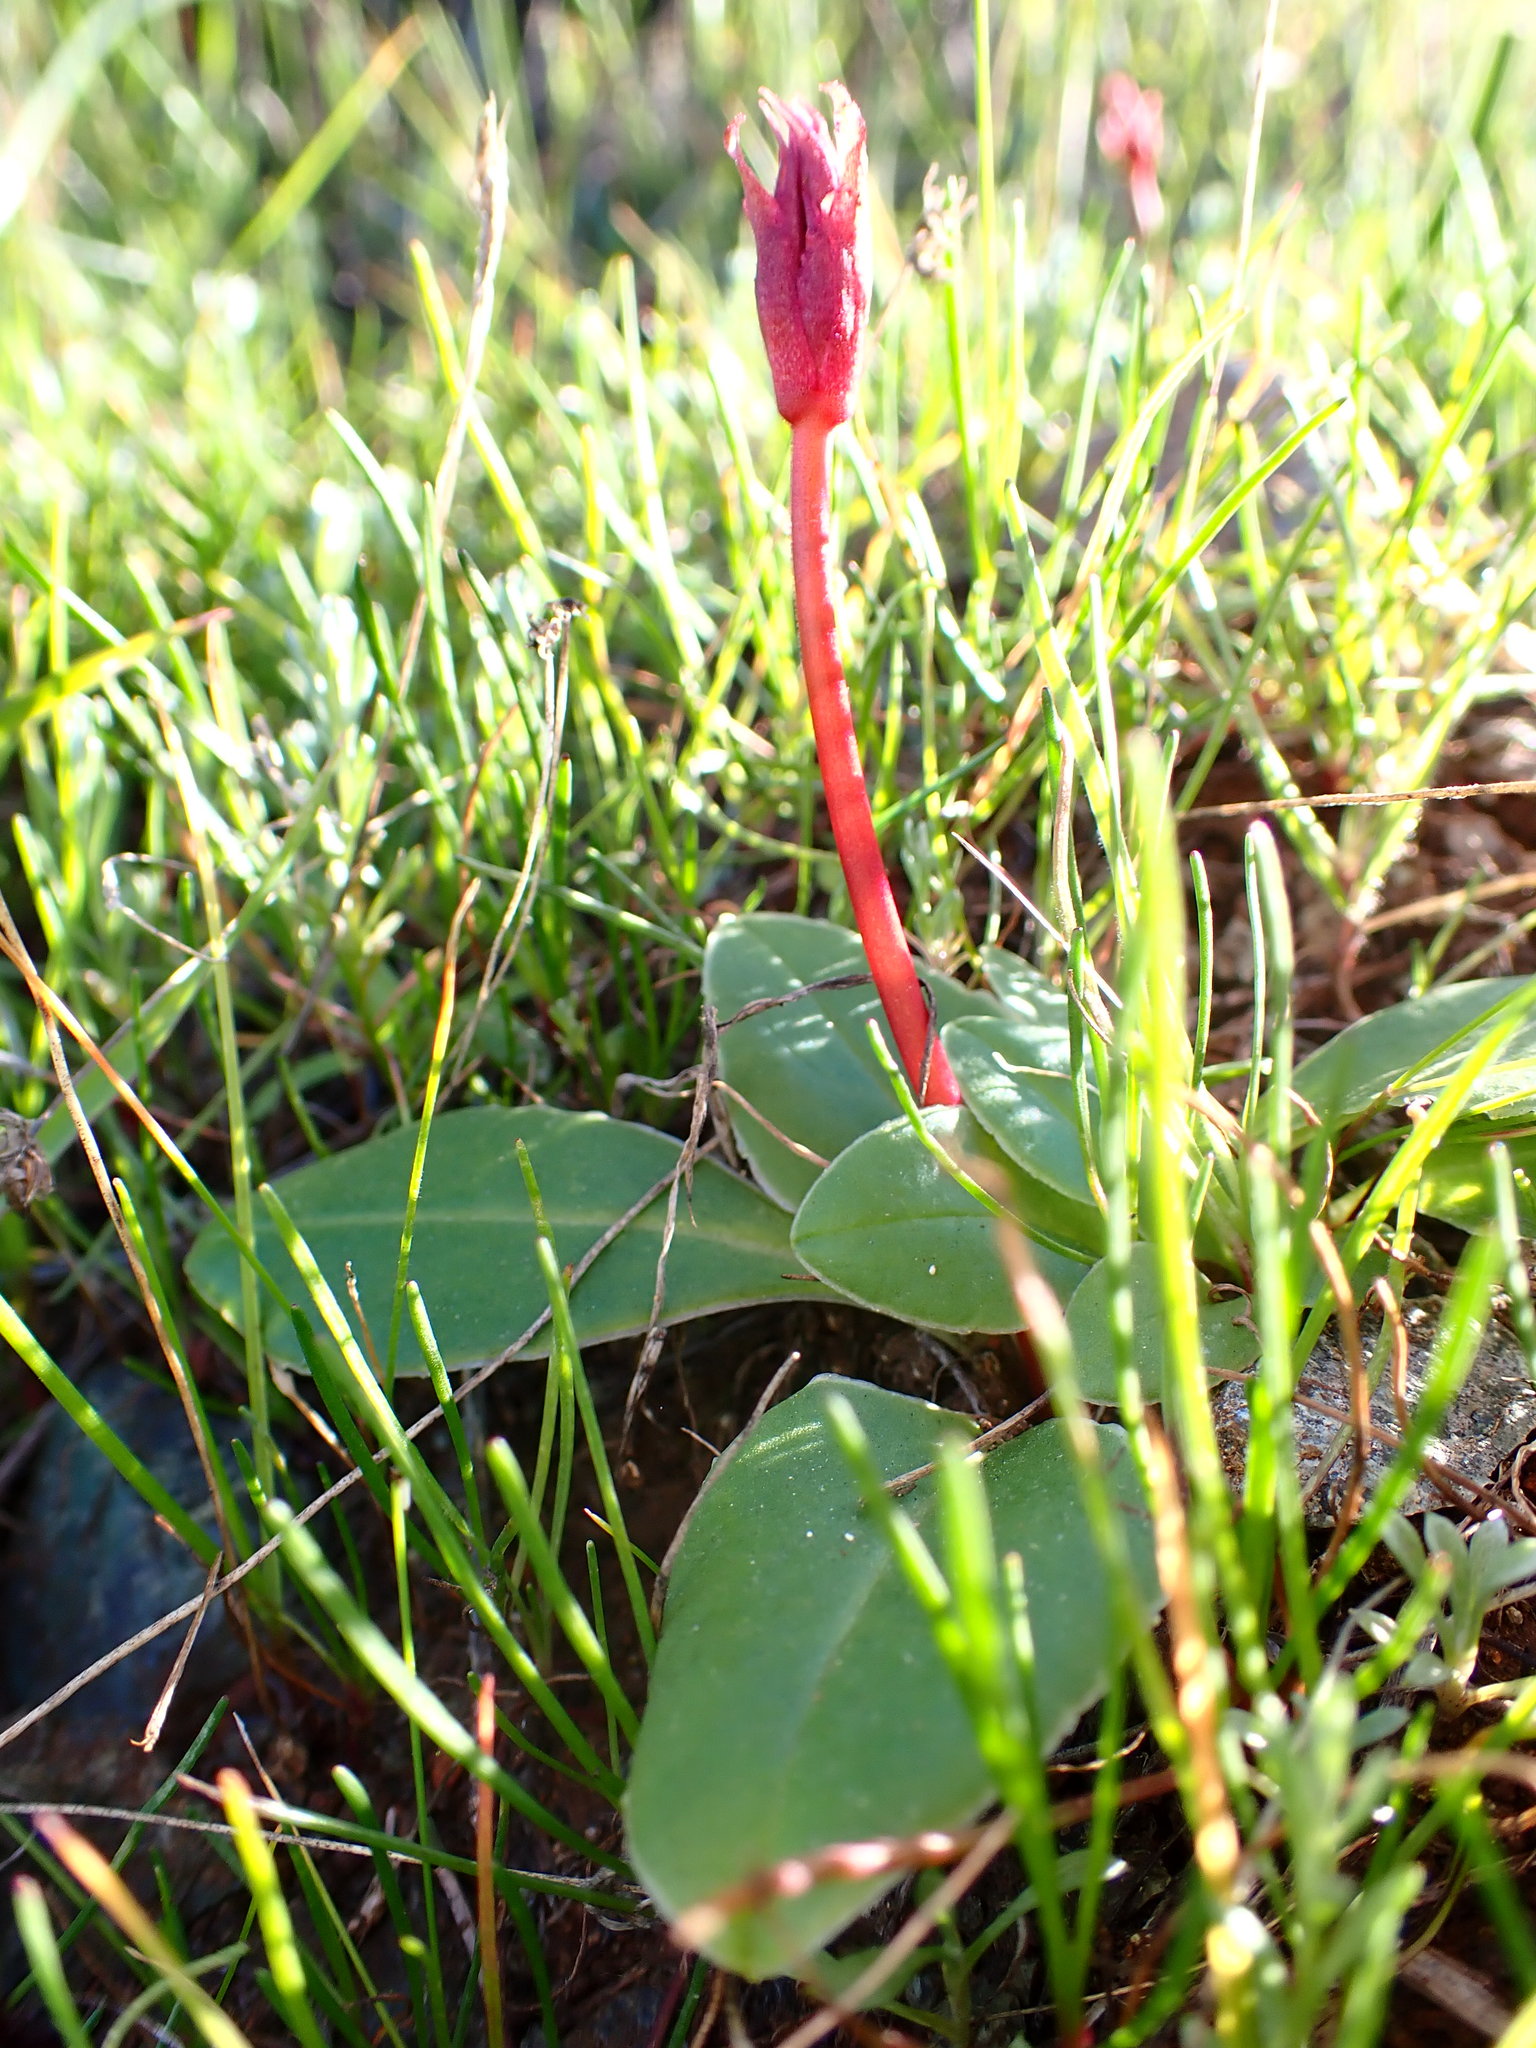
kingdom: Plantae
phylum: Tracheophyta
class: Magnoliopsida
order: Ericales
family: Primulaceae
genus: Dodecatheon
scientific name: Dodecatheon hendersonii
